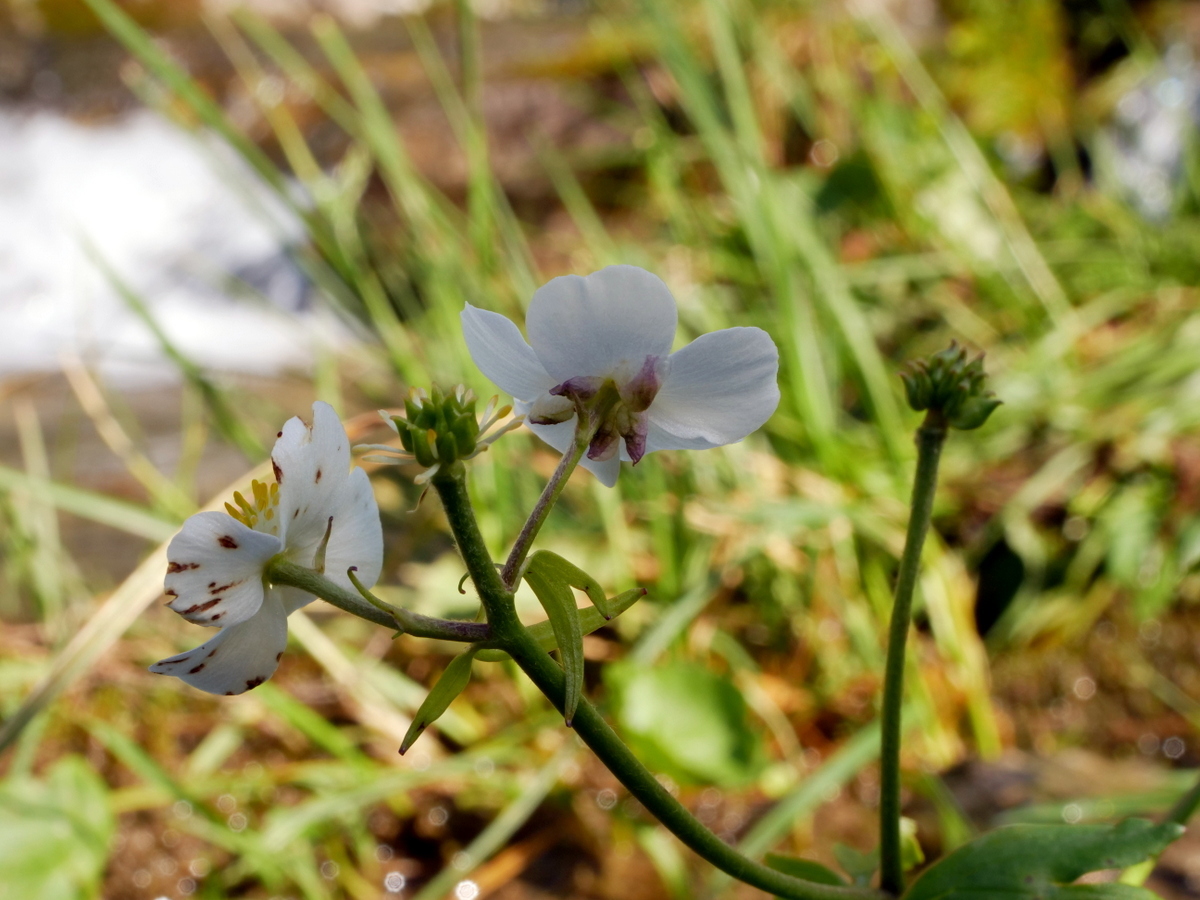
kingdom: Plantae
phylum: Tracheophyta
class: Magnoliopsida
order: Ranunculales
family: Ranunculaceae
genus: Ranunculus
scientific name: Ranunculus aconitifolius
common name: Aconite-leaved buttercup
